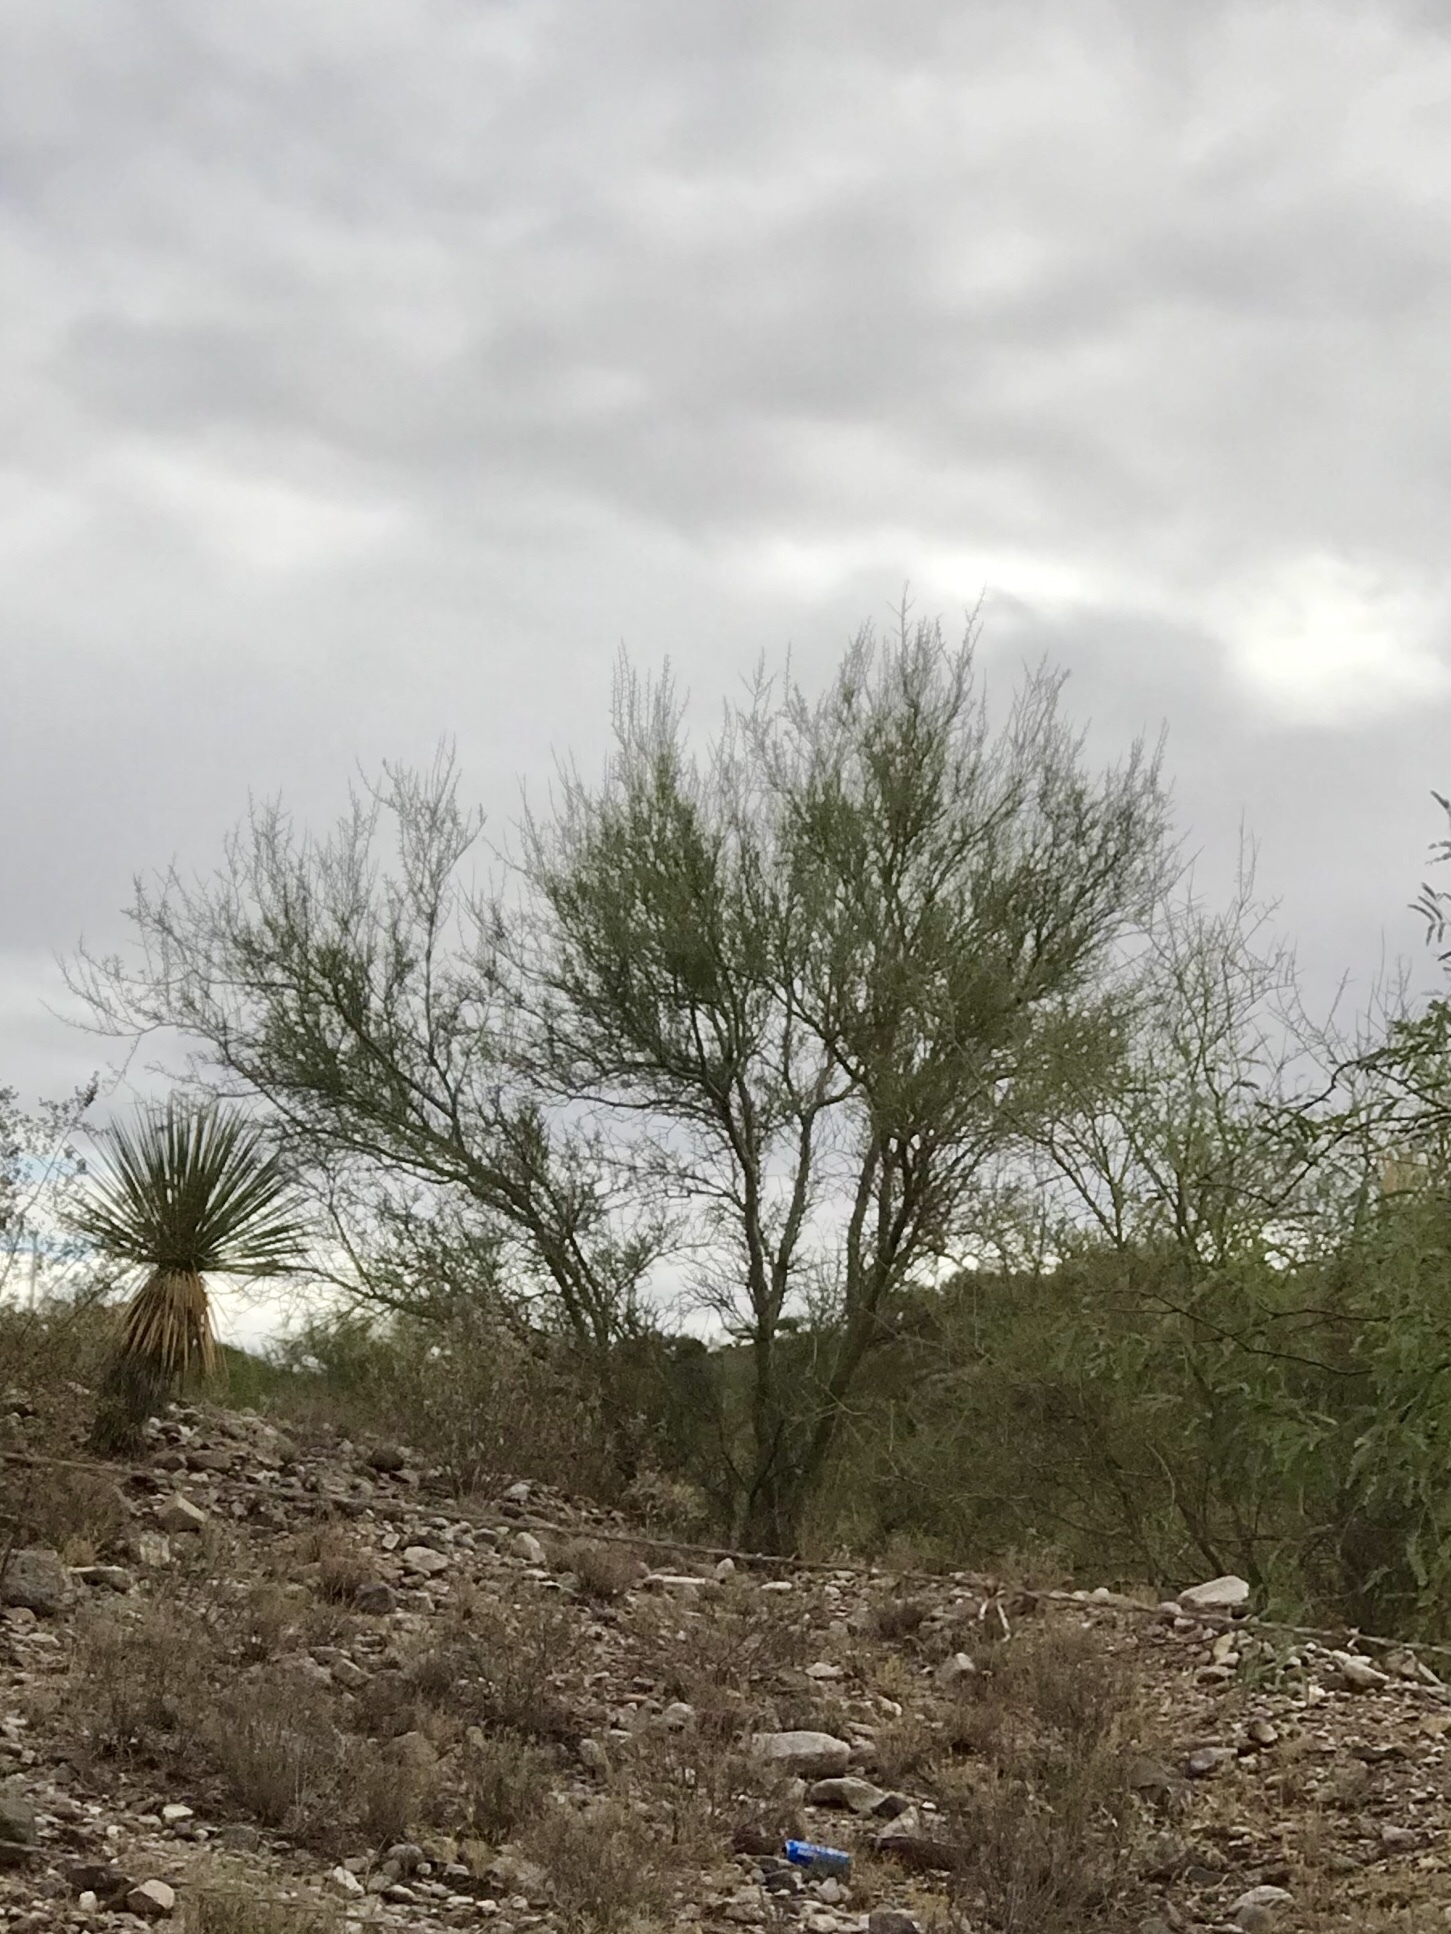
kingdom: Plantae
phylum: Tracheophyta
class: Magnoliopsida
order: Fabales
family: Fabaceae
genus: Parkinsonia
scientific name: Parkinsonia microphylla
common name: Yellow paloverde
